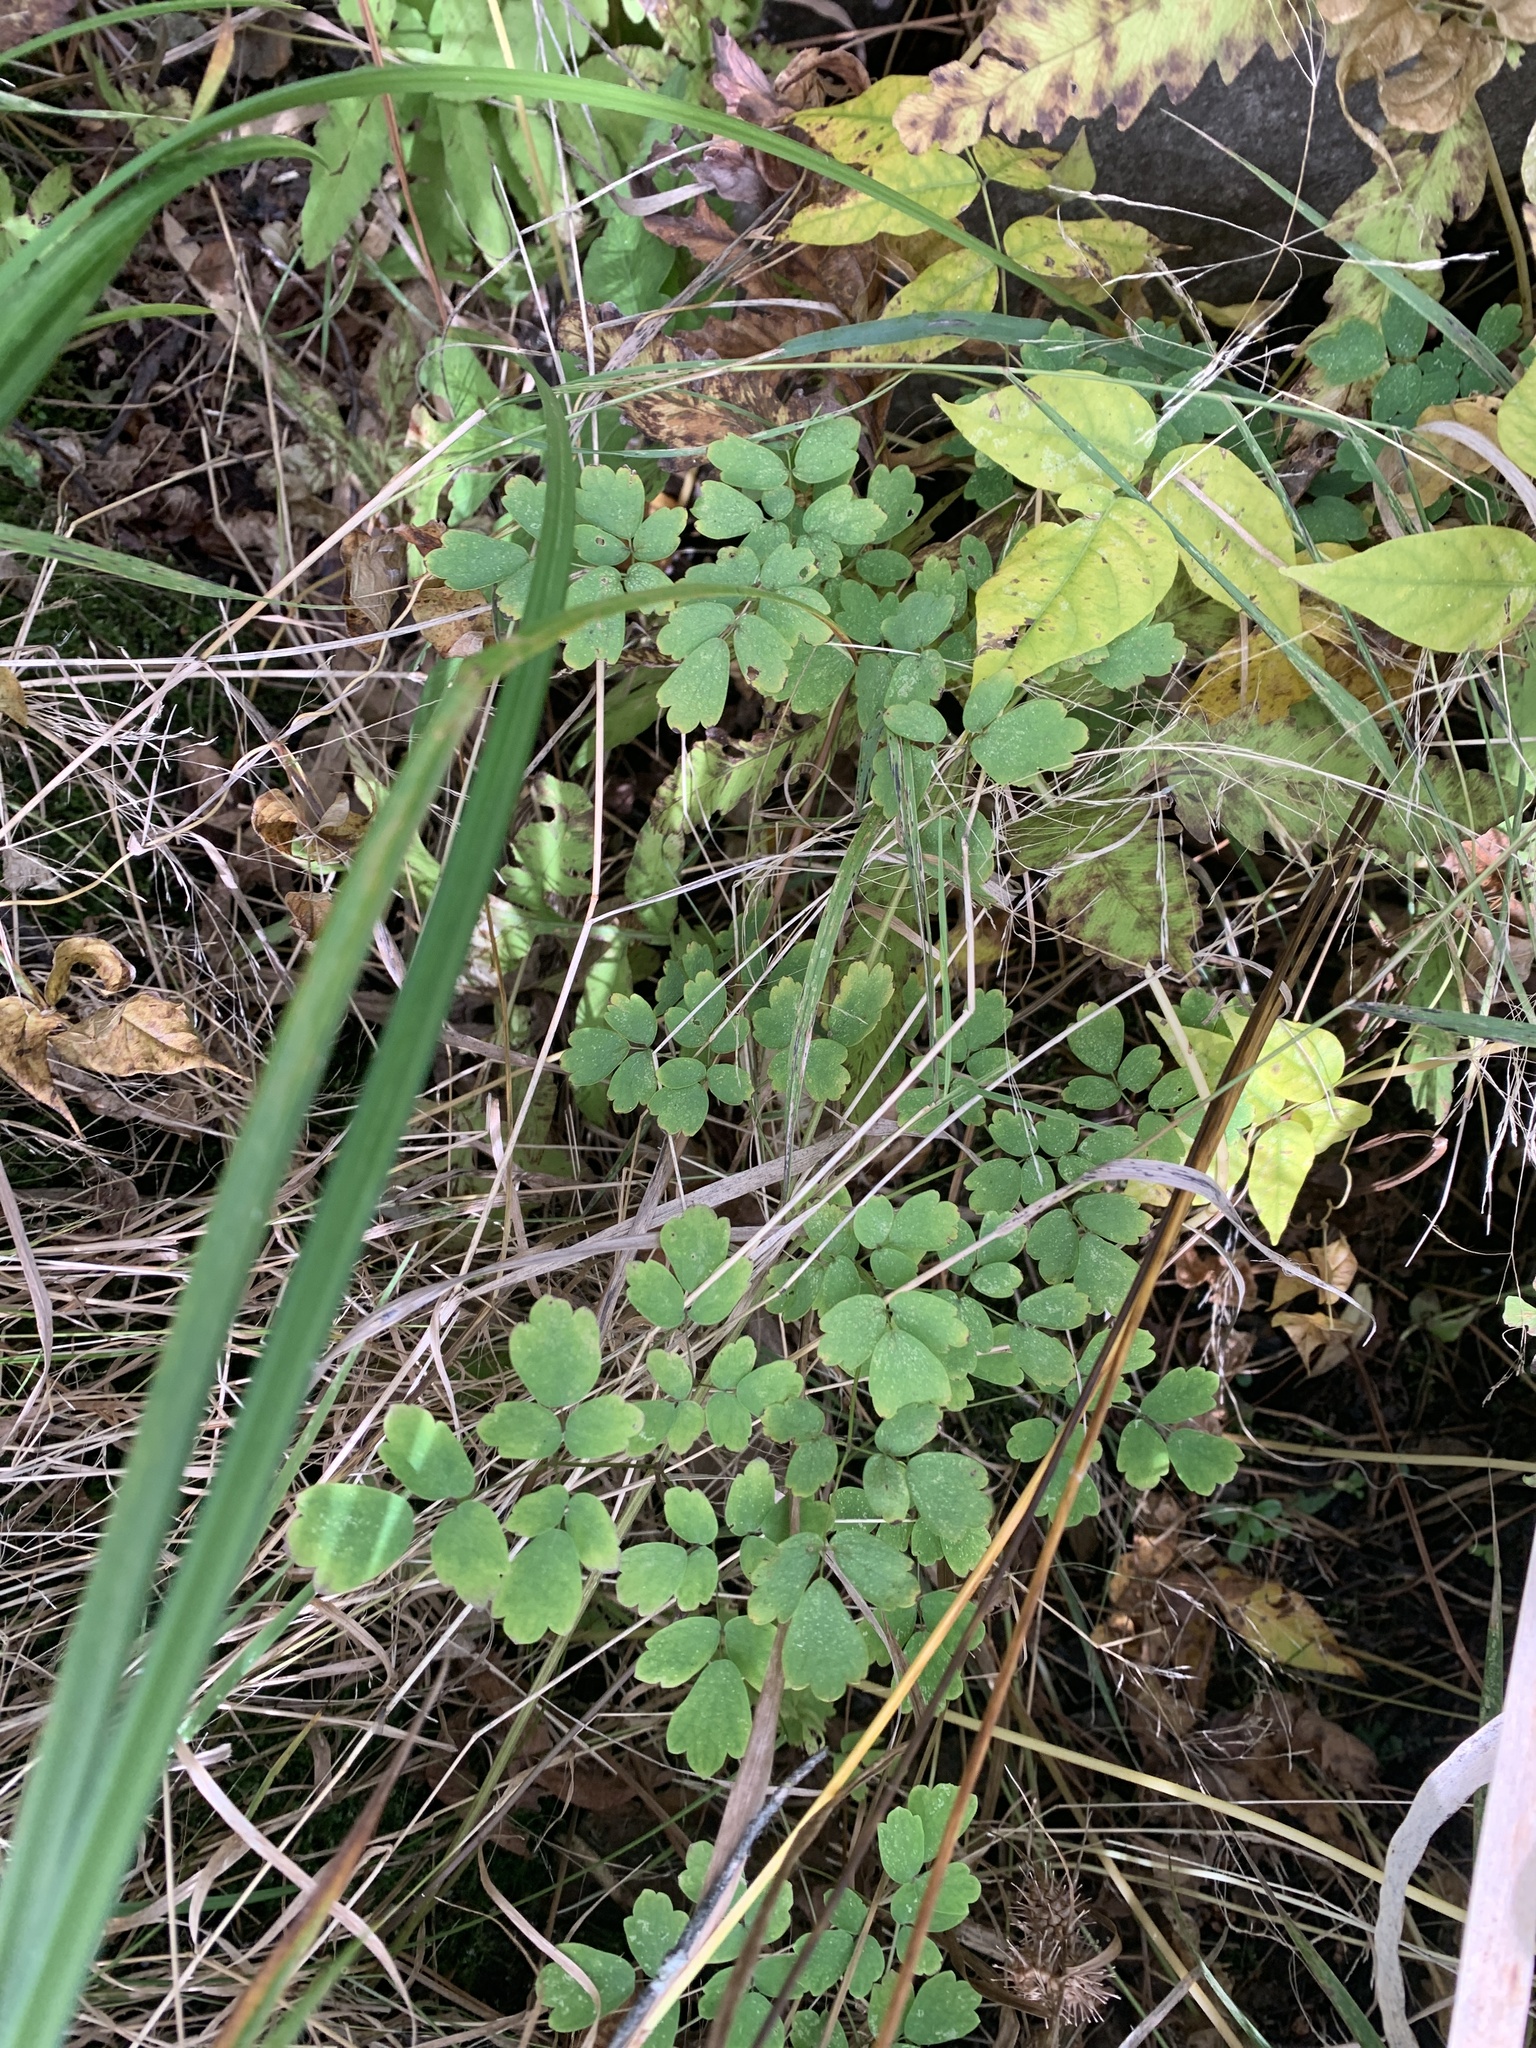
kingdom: Plantae
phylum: Tracheophyta
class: Magnoliopsida
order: Ranunculales
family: Ranunculaceae
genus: Thalictrum
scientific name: Thalictrum pubescens
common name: King-of-the-meadow
